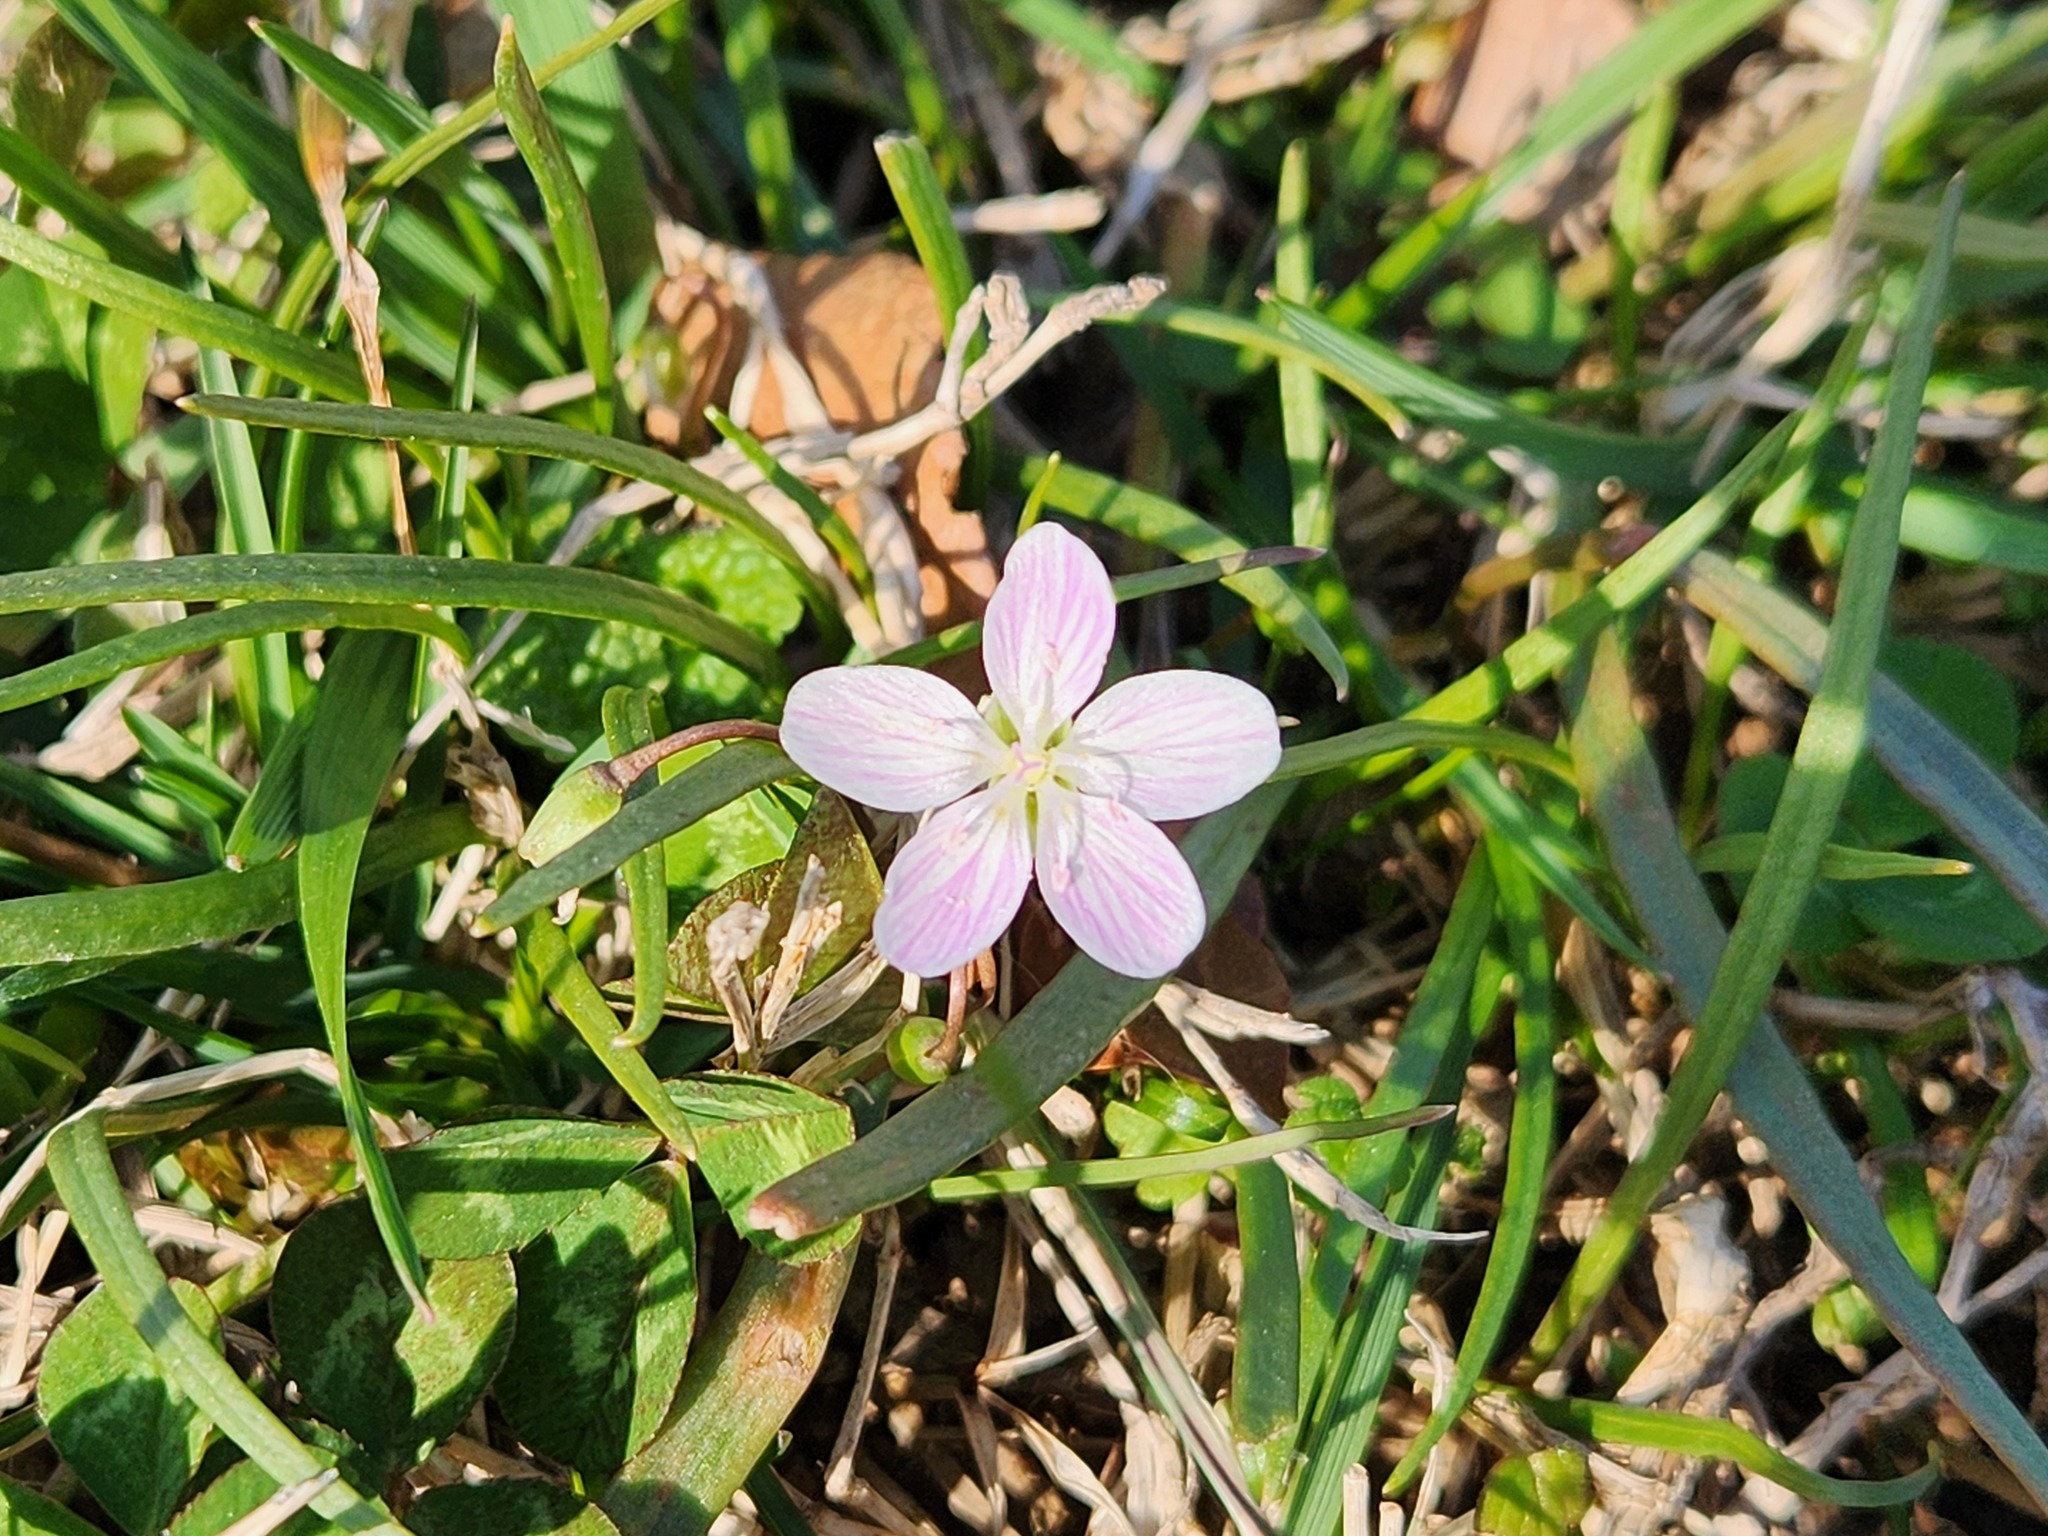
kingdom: Plantae
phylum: Tracheophyta
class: Magnoliopsida
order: Caryophyllales
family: Montiaceae
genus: Claytonia
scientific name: Claytonia virginica
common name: Virginia springbeauty
